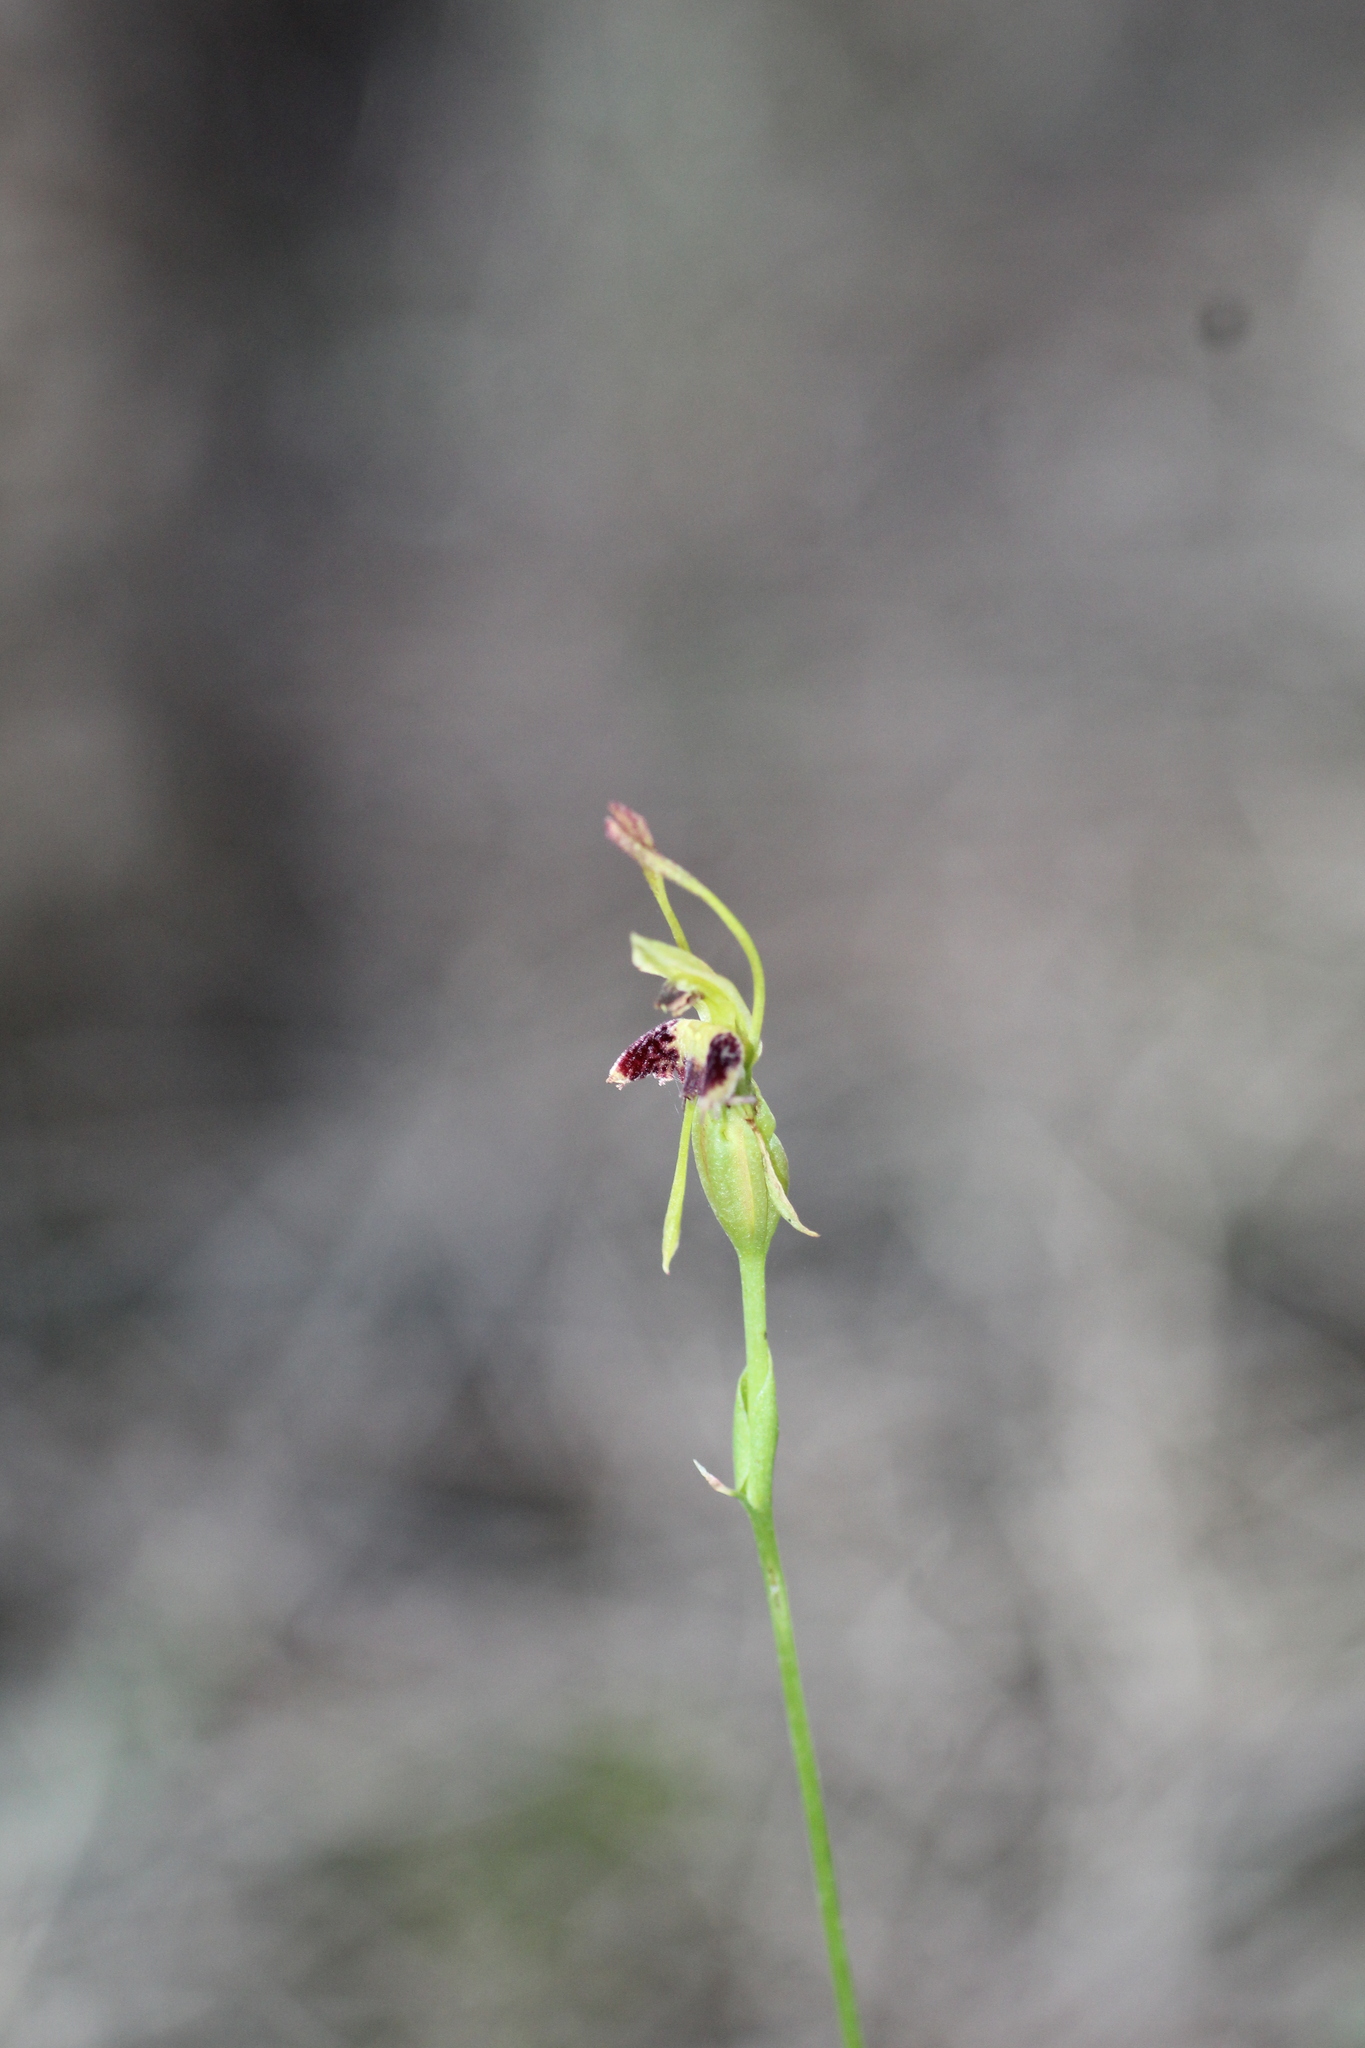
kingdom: Plantae
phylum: Tracheophyta
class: Liliopsida
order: Asparagales
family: Orchidaceae
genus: Leporella
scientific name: Leporella fimbriata
